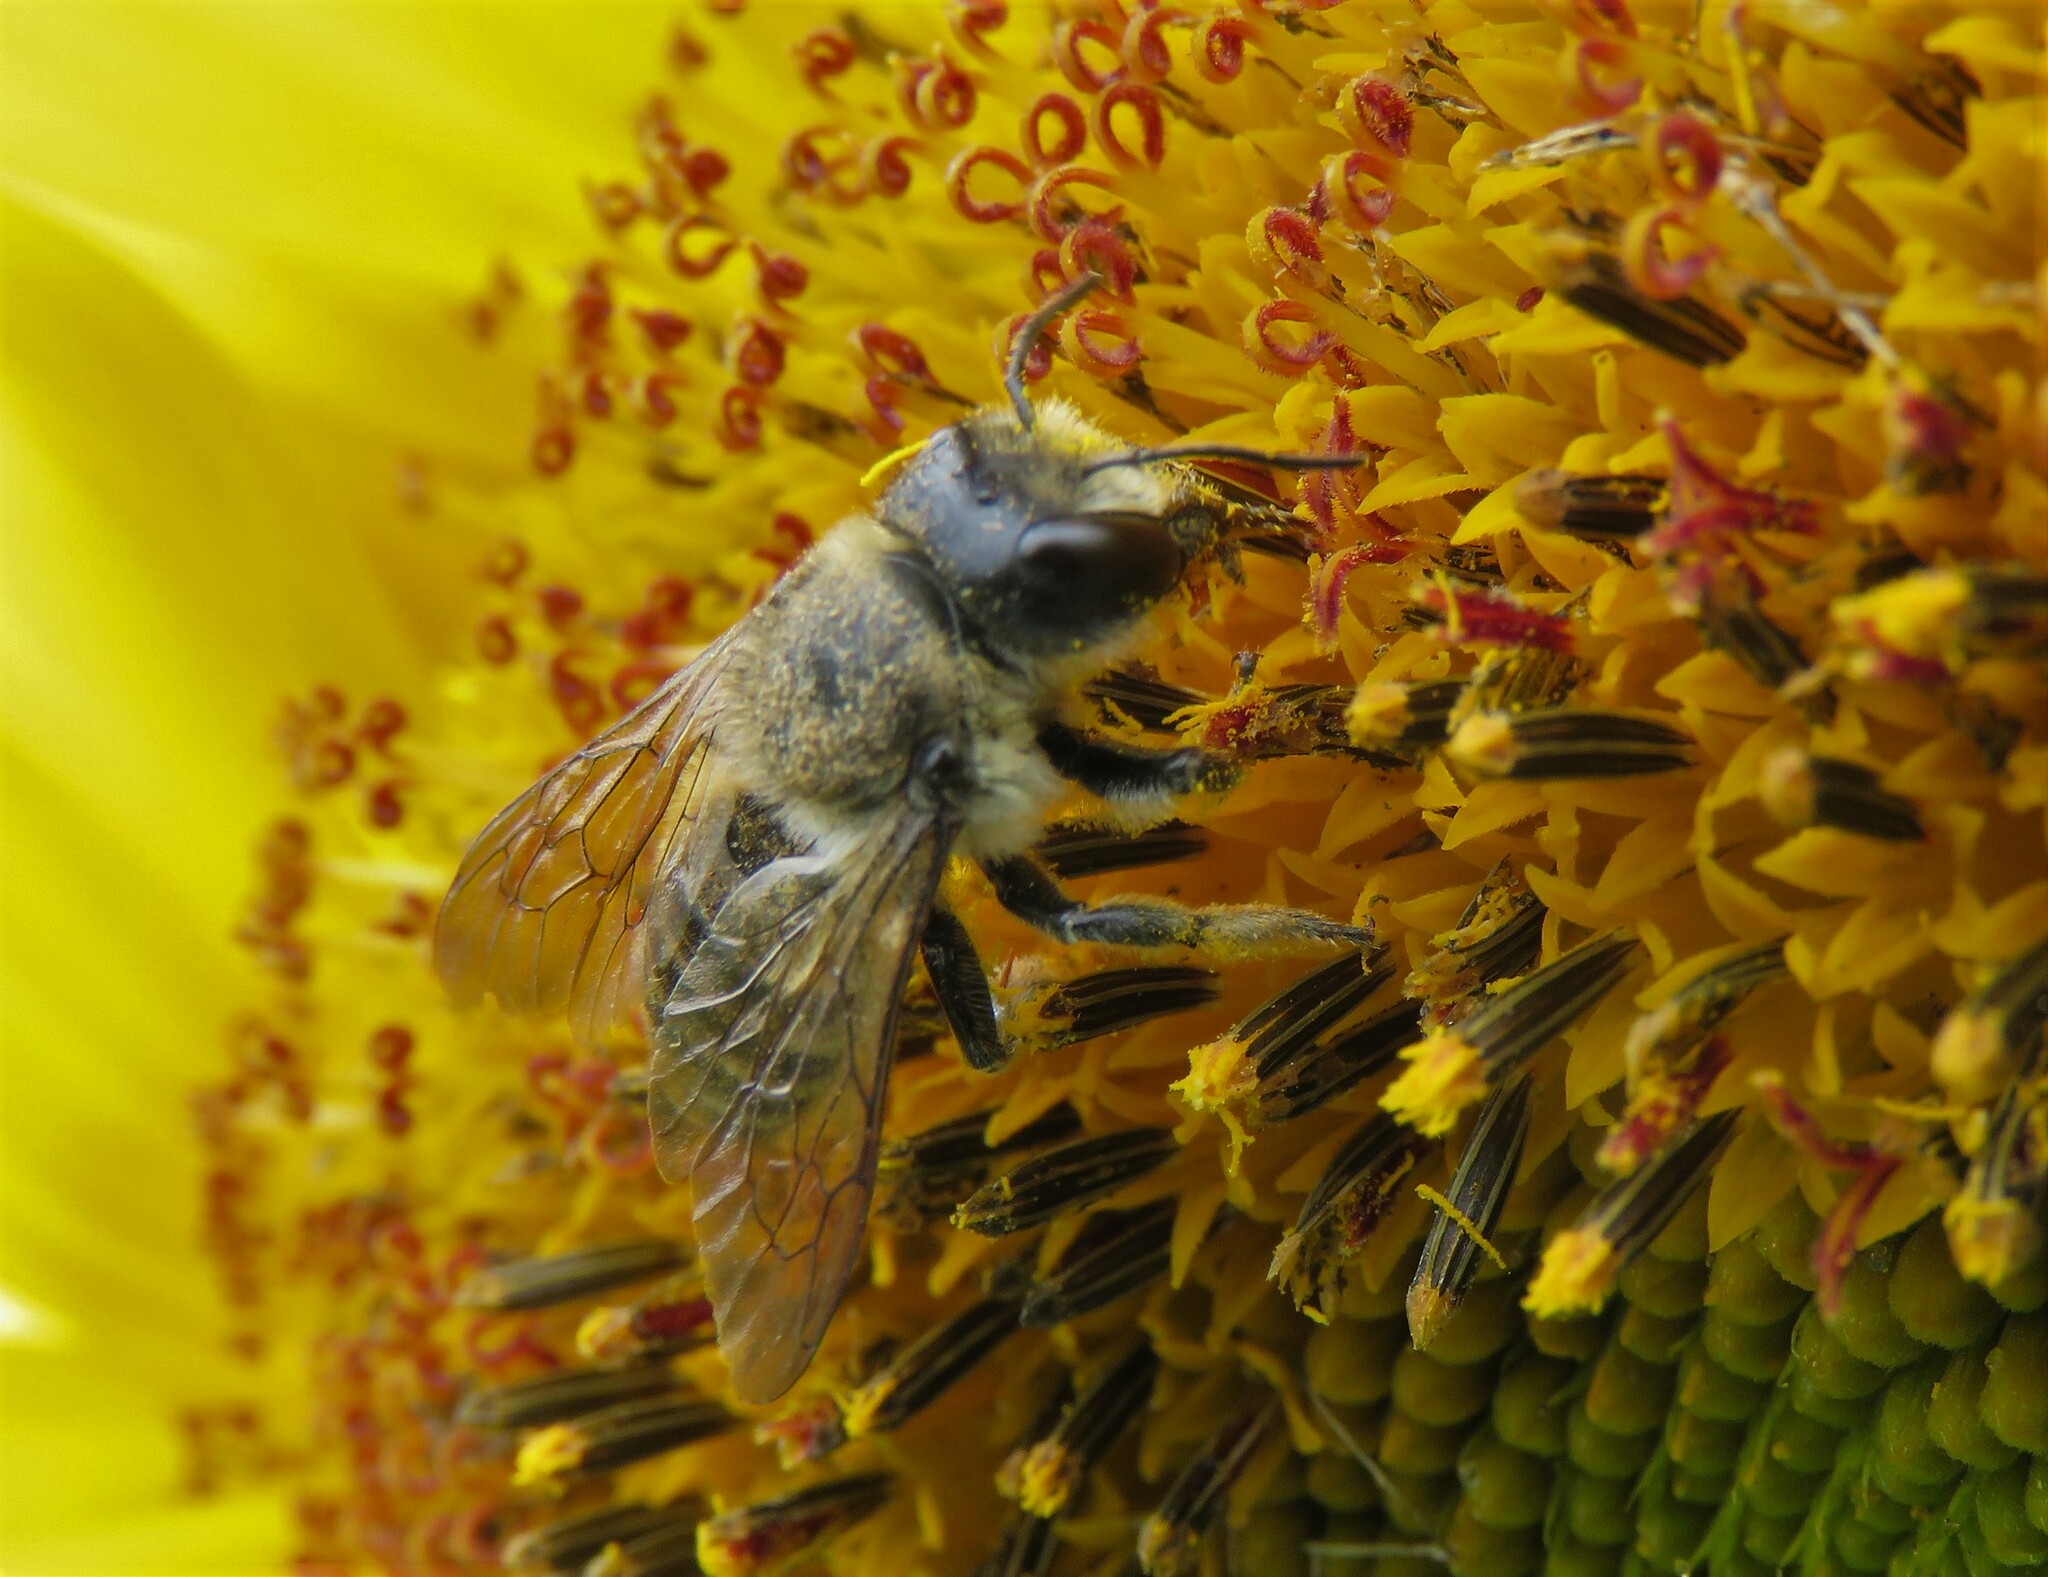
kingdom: Animalia
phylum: Arthropoda
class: Insecta
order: Hymenoptera
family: Megachilidae
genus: Megachile
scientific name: Megachile inermis
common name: Unarmed leafcutter bee
